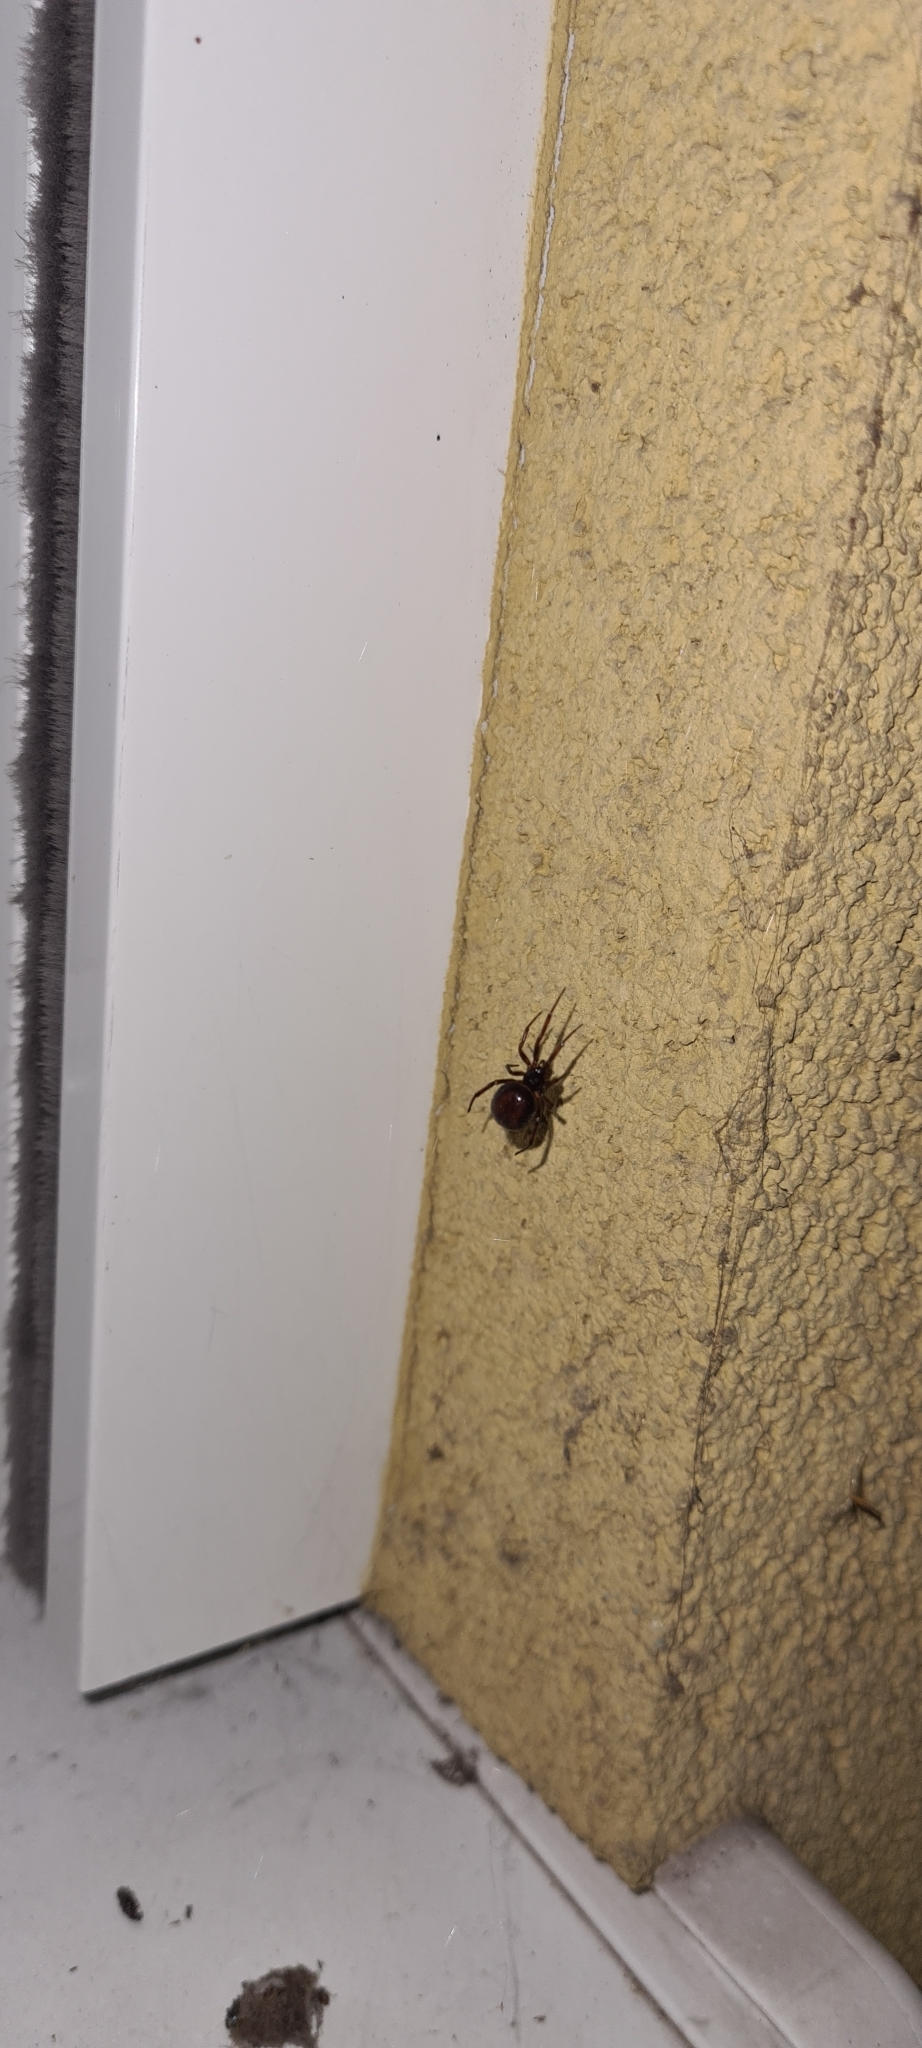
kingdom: Animalia
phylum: Arthropoda
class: Arachnida
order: Araneae
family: Theridiidae
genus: Steatoda
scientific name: Steatoda bipunctata
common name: False widow
